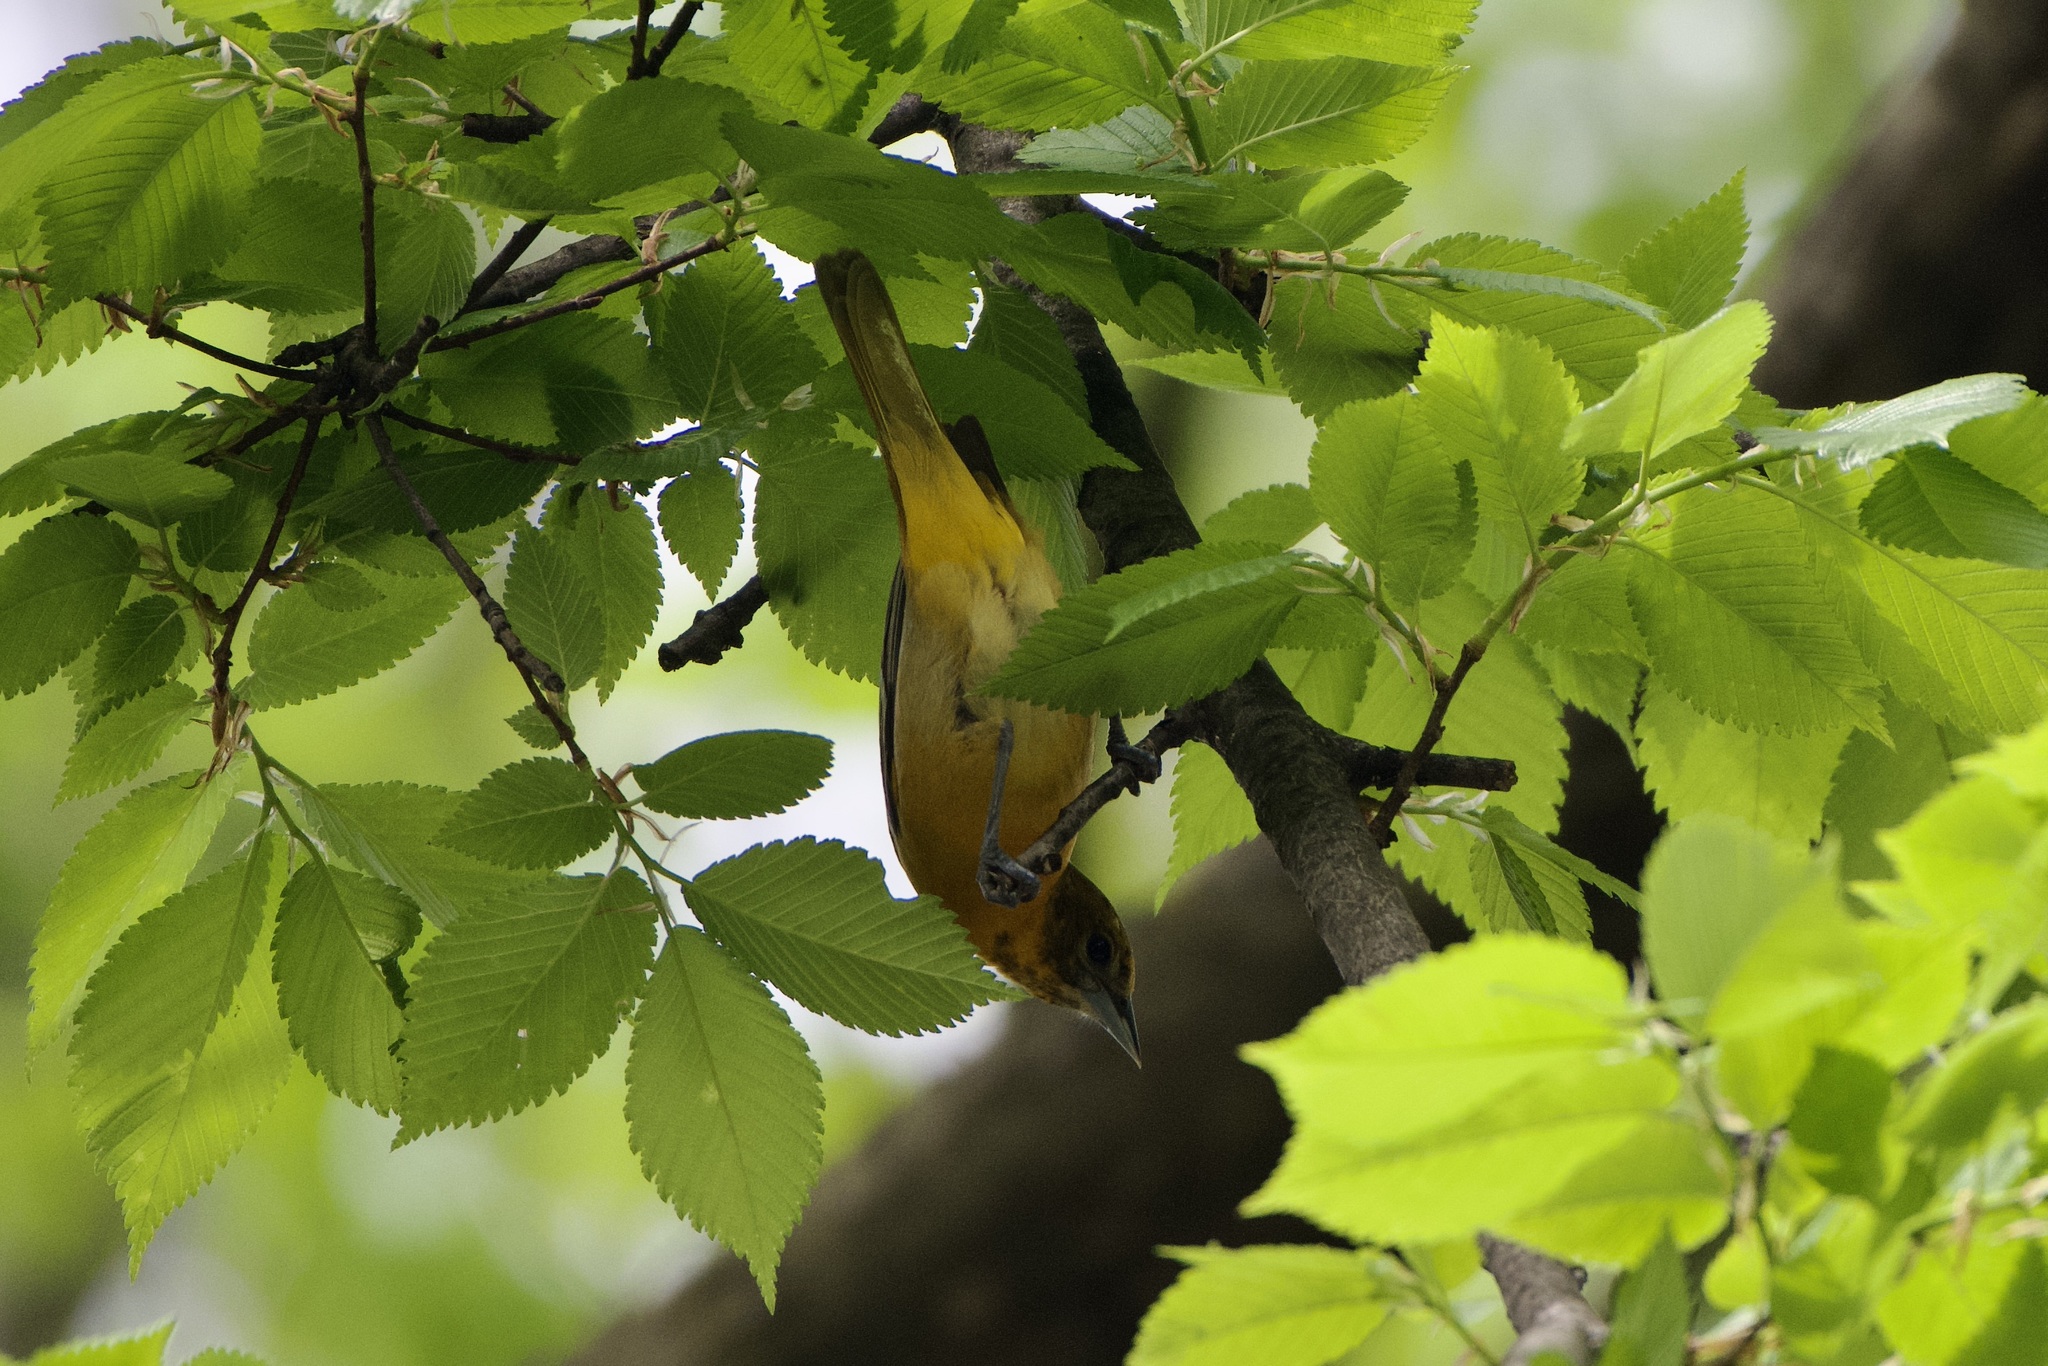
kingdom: Animalia
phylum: Chordata
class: Aves
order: Passeriformes
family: Icteridae
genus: Icterus
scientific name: Icterus galbula
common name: Baltimore oriole
